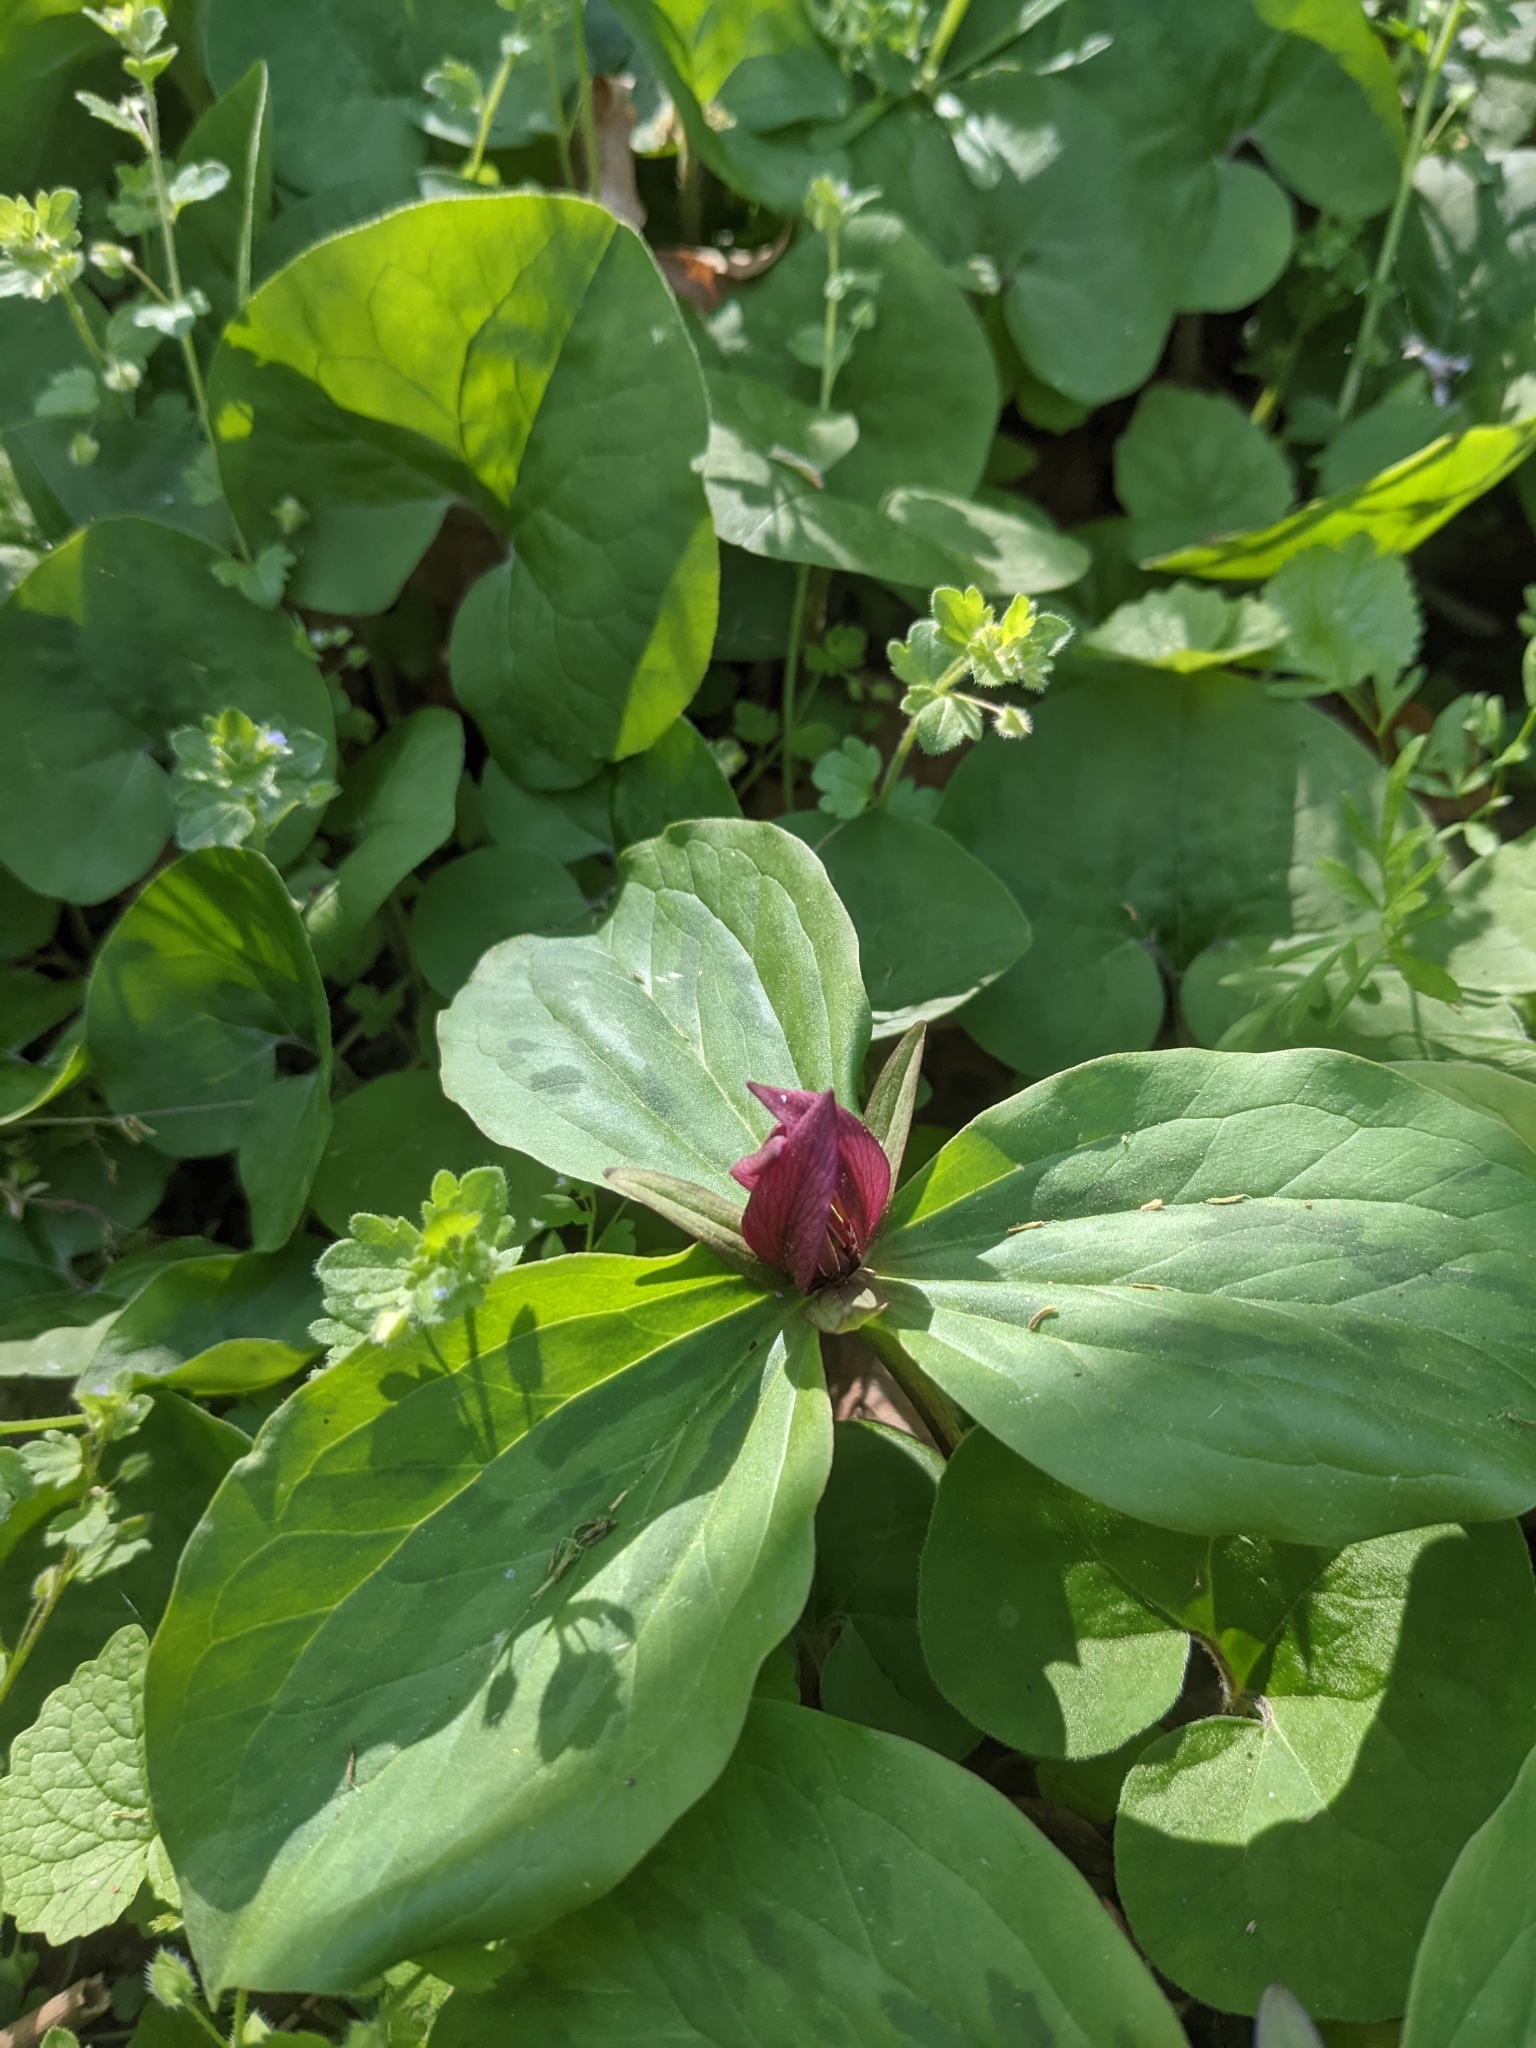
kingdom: Plantae
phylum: Tracheophyta
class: Liliopsida
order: Liliales
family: Melanthiaceae
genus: Trillium
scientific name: Trillium sessile
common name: Sessile trillium
